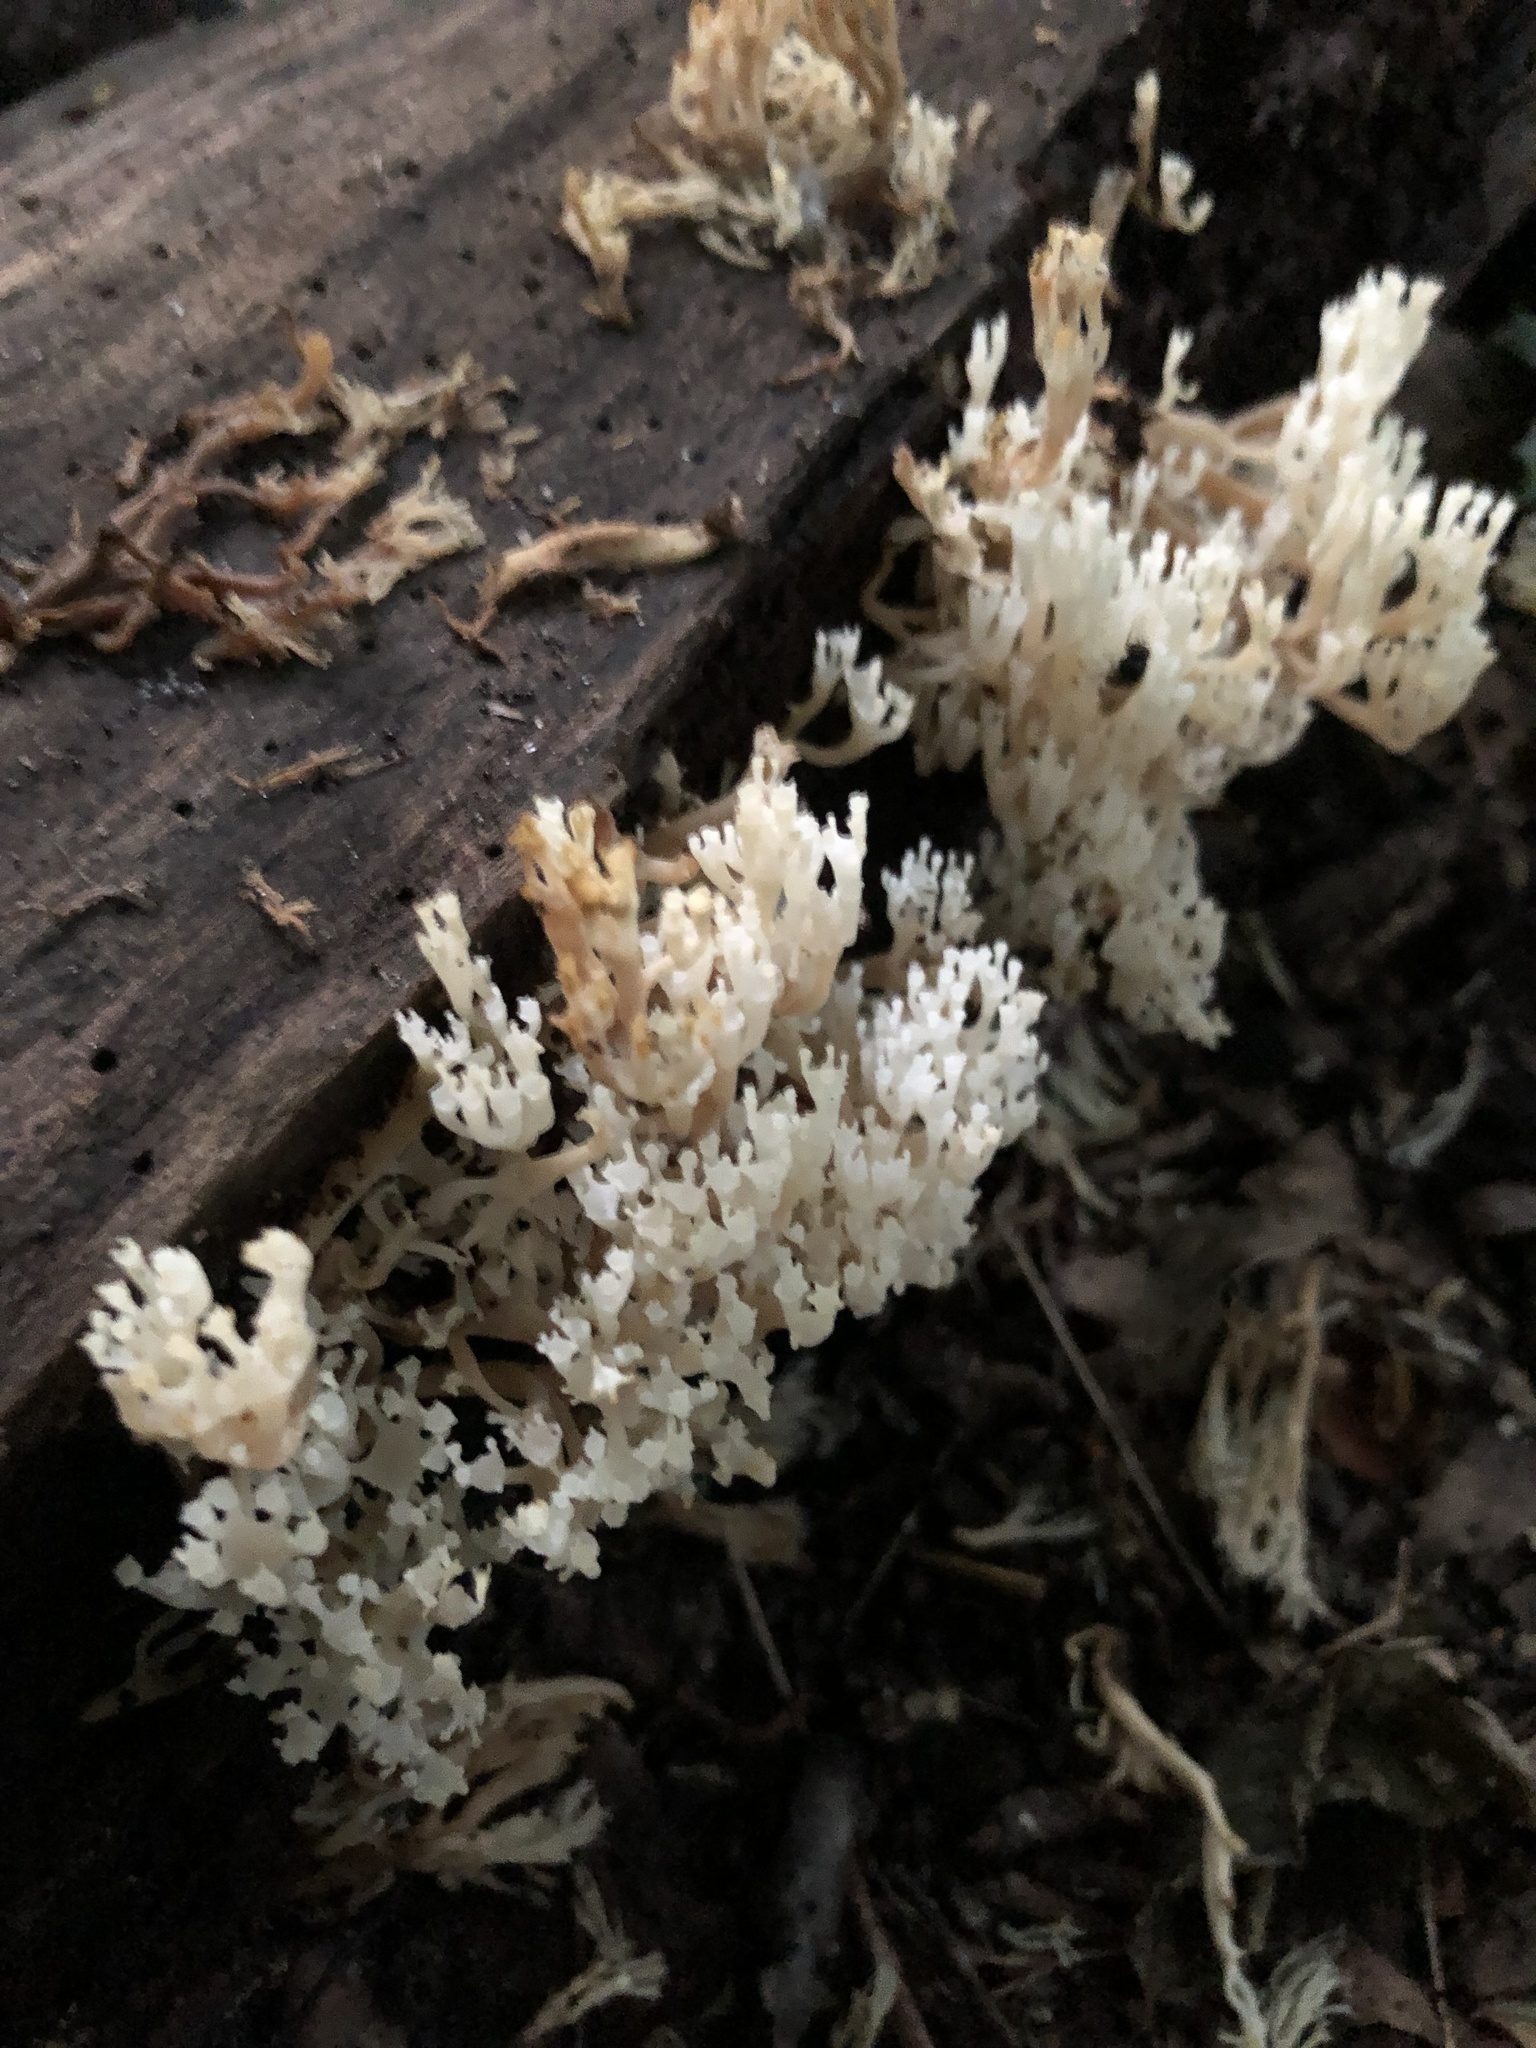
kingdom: Fungi
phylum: Basidiomycota
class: Agaricomycetes
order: Russulales
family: Auriscalpiaceae
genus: Artomyces
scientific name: Artomyces pyxidatus
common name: Crown-tipped coral fungus
